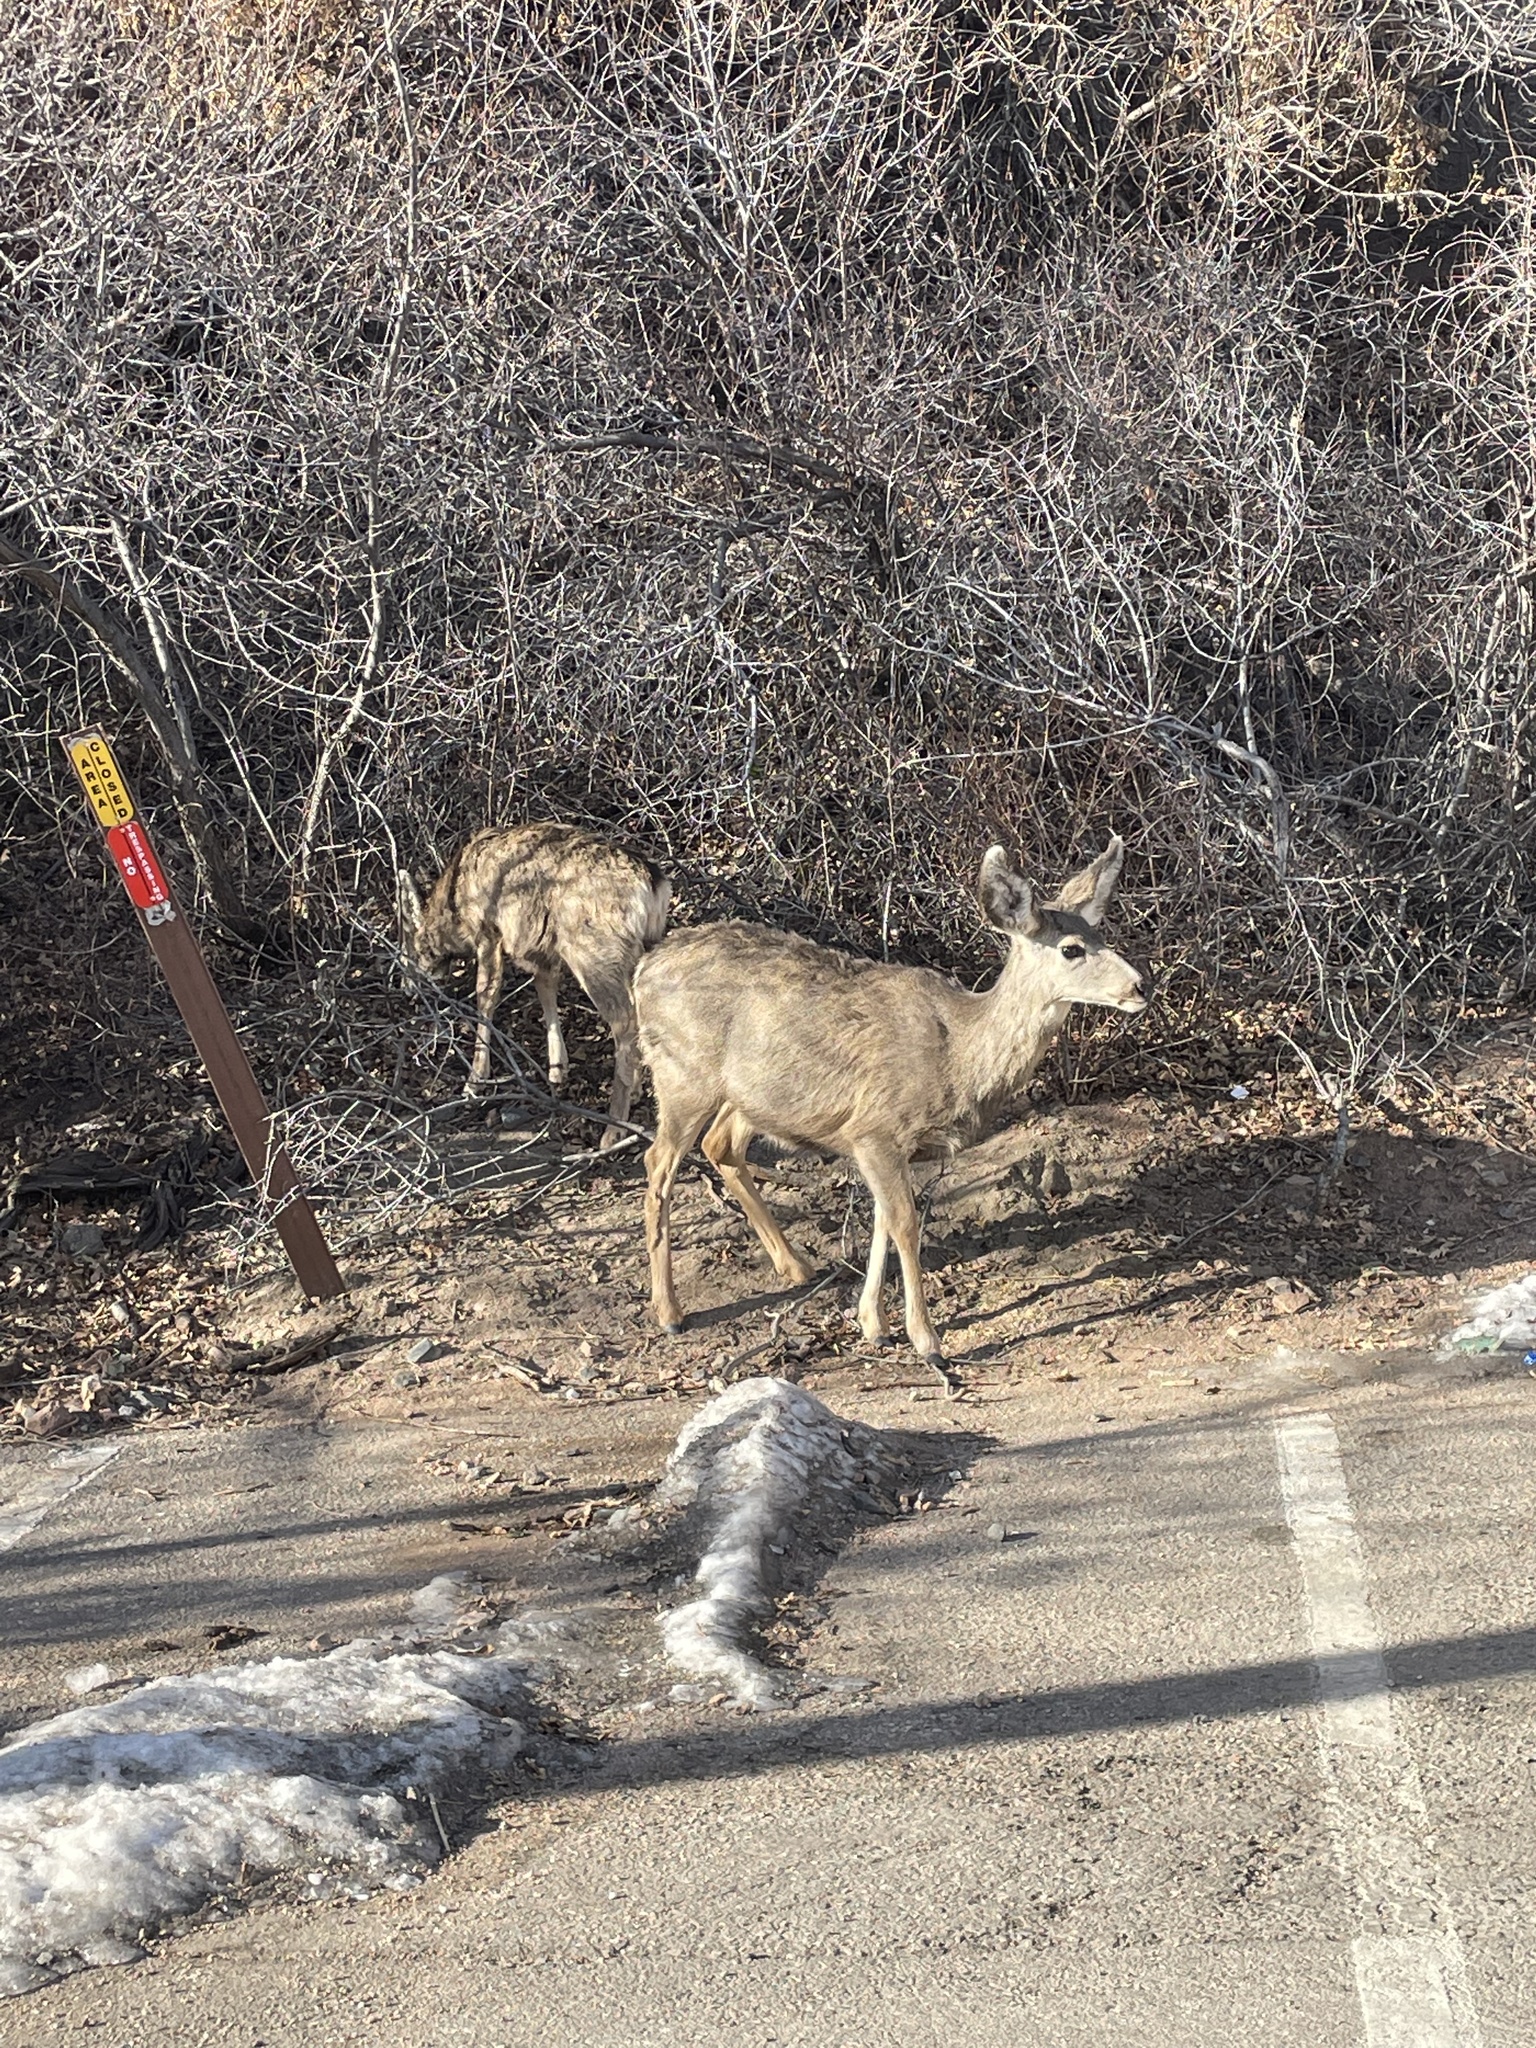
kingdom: Animalia
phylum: Chordata
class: Mammalia
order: Artiodactyla
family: Cervidae
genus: Odocoileus
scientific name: Odocoileus hemionus
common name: Mule deer
